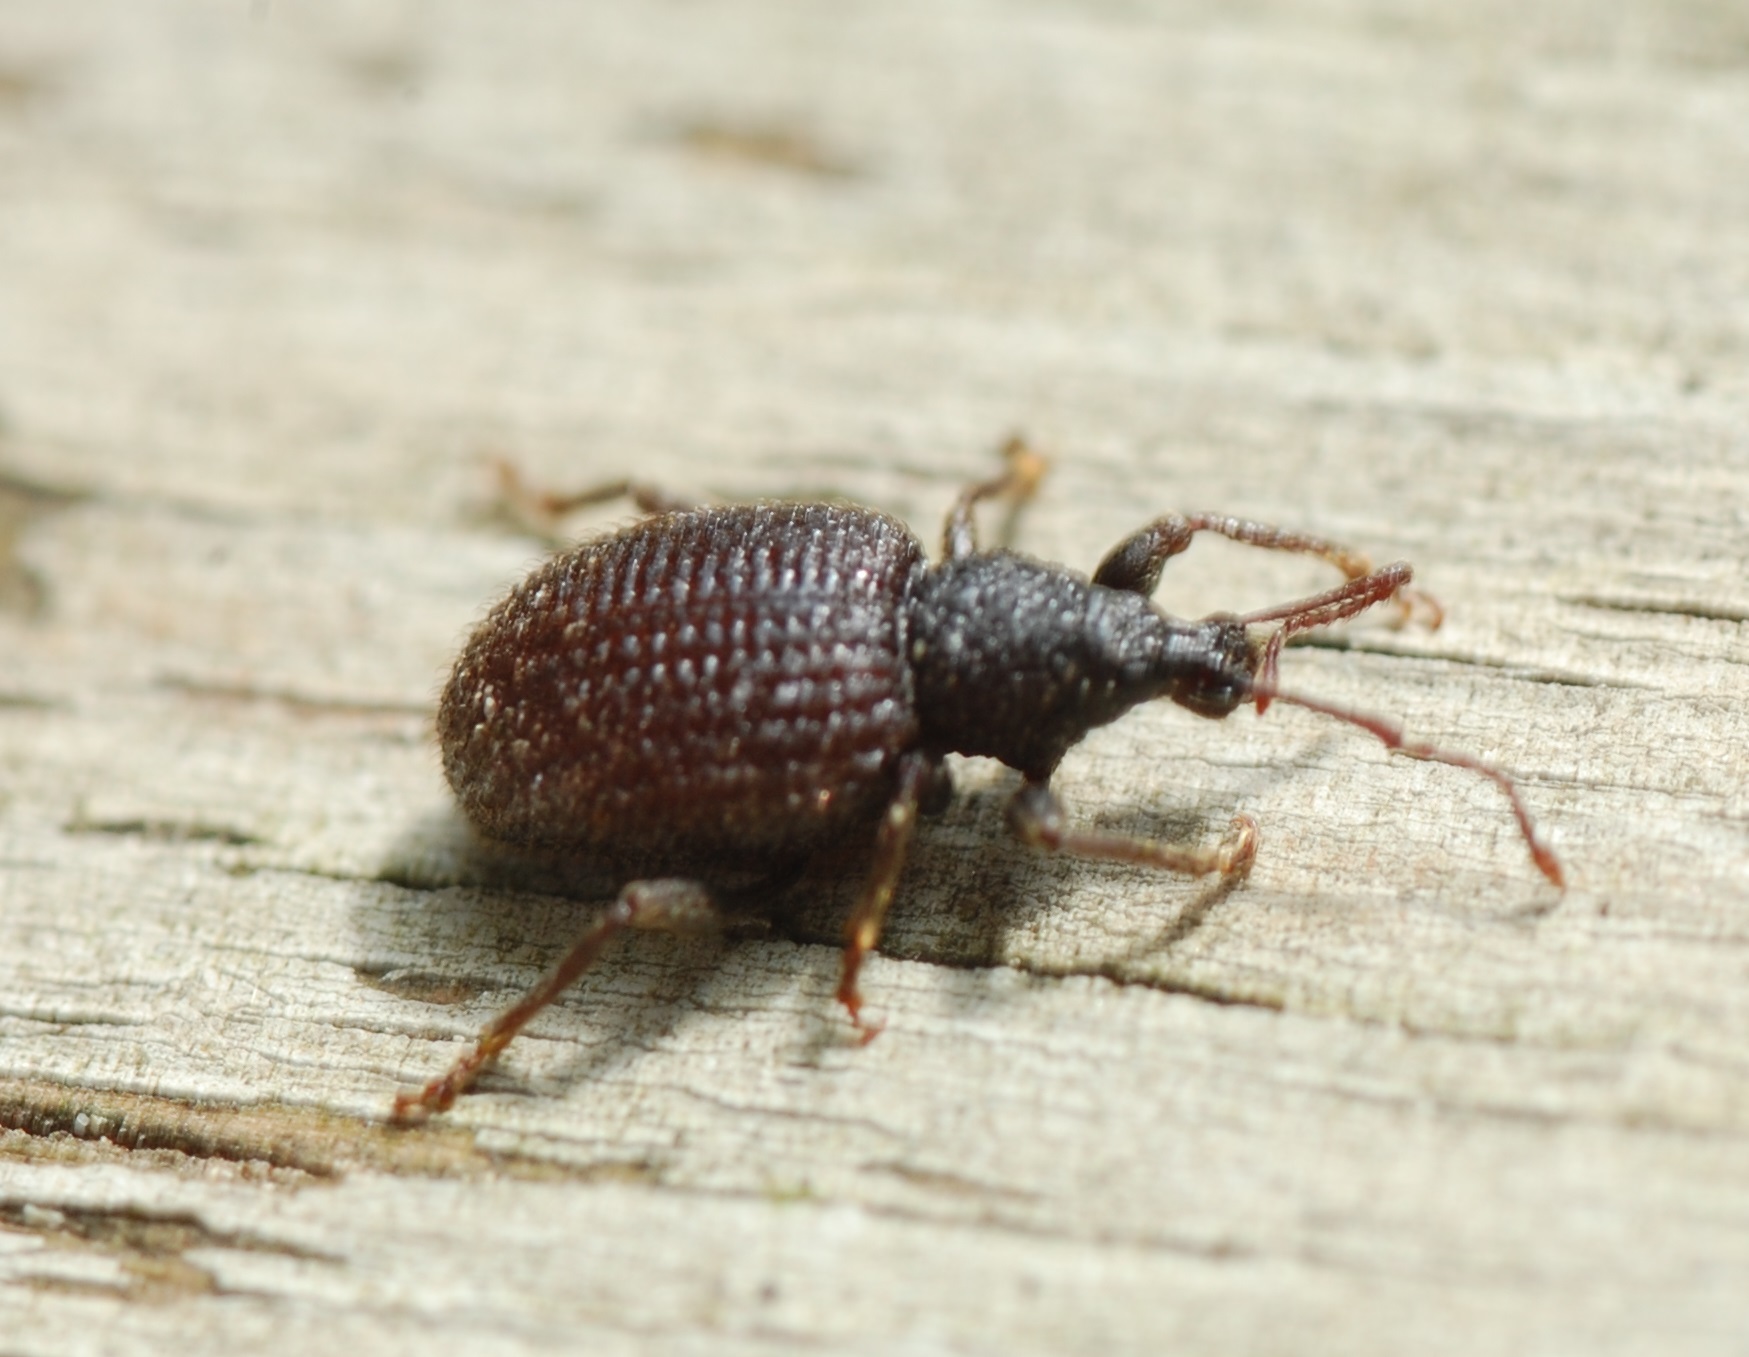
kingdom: Animalia
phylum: Arthropoda
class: Insecta
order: Coleoptera
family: Curculionidae
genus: Otiorhynchus
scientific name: Otiorhynchus rugosostriatus
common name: Weevil
